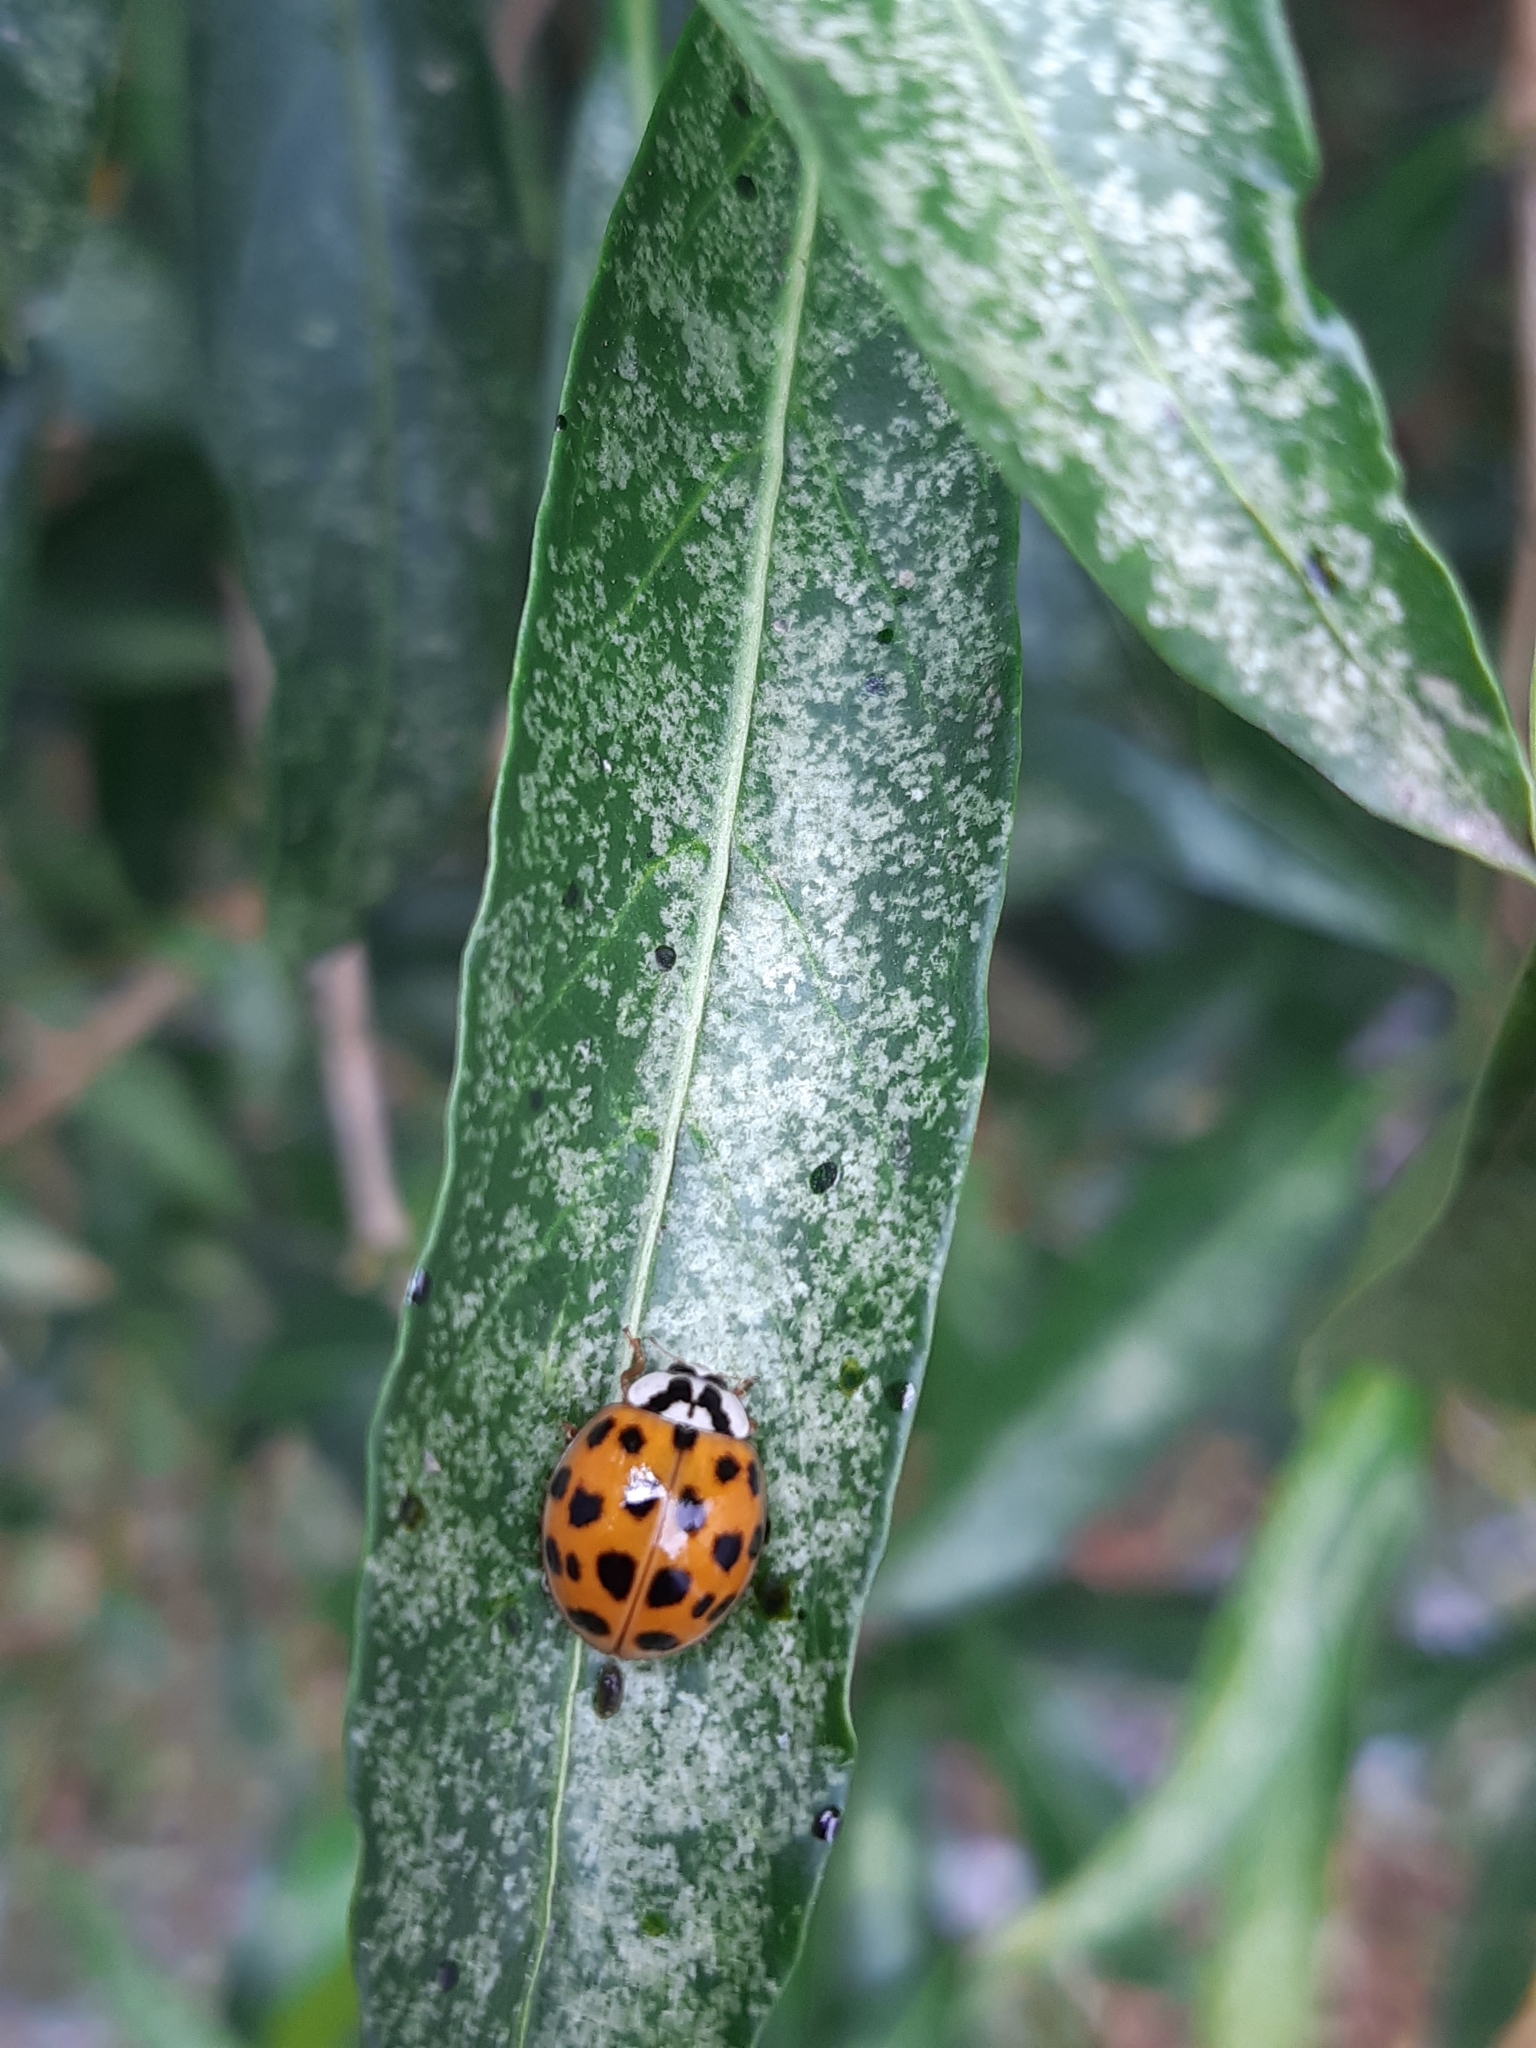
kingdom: Animalia
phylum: Arthropoda
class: Insecta
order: Coleoptera
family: Coccinellidae
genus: Harmonia
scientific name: Harmonia axyridis
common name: Harlequin ladybird
